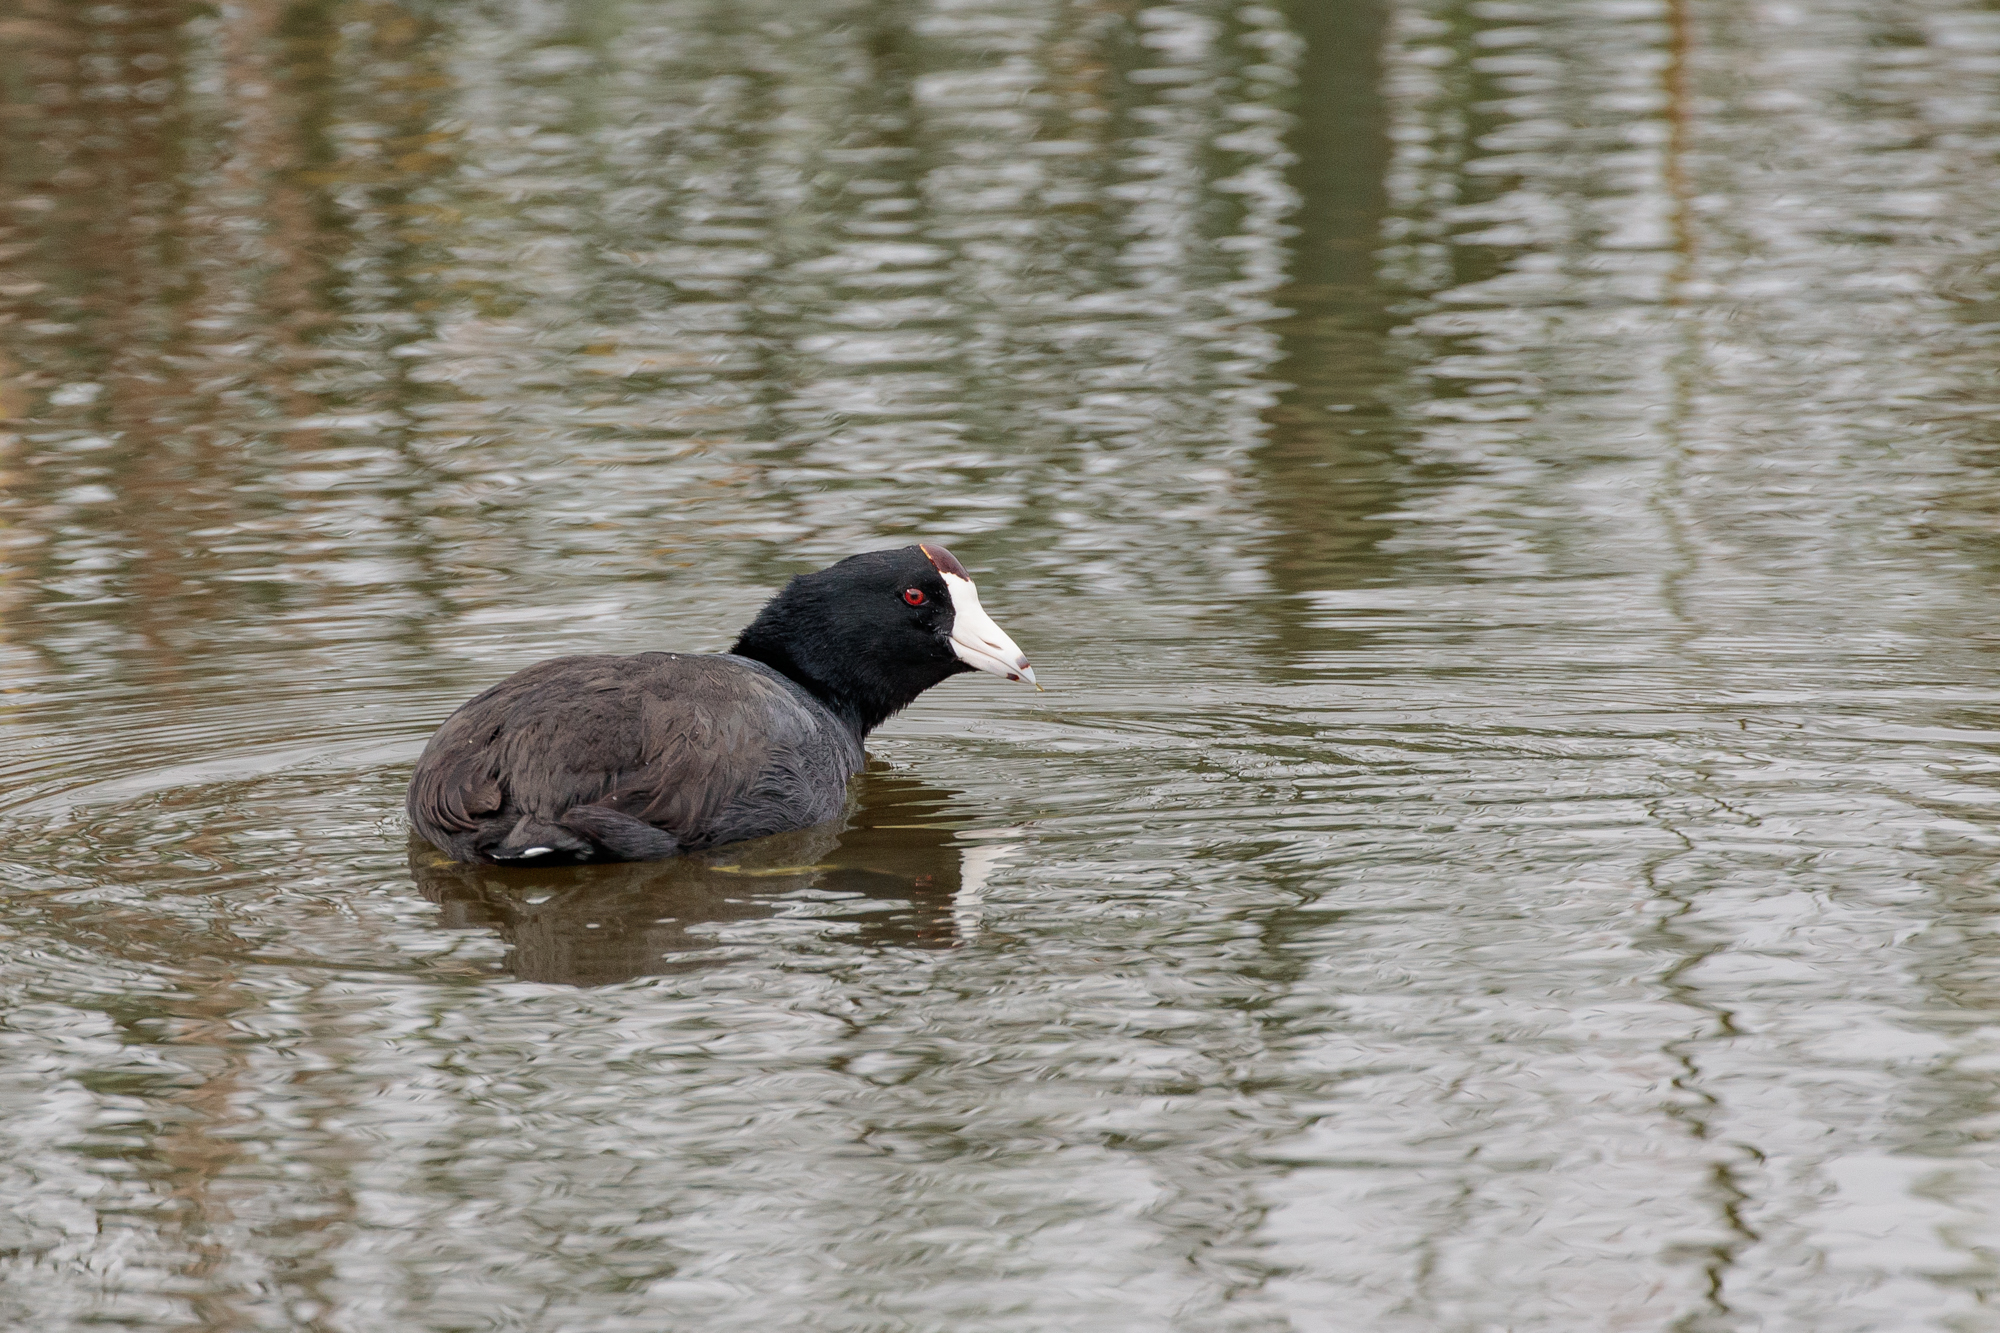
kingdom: Animalia
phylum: Chordata
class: Aves
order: Gruiformes
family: Rallidae
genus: Fulica
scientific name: Fulica americana
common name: American coot
